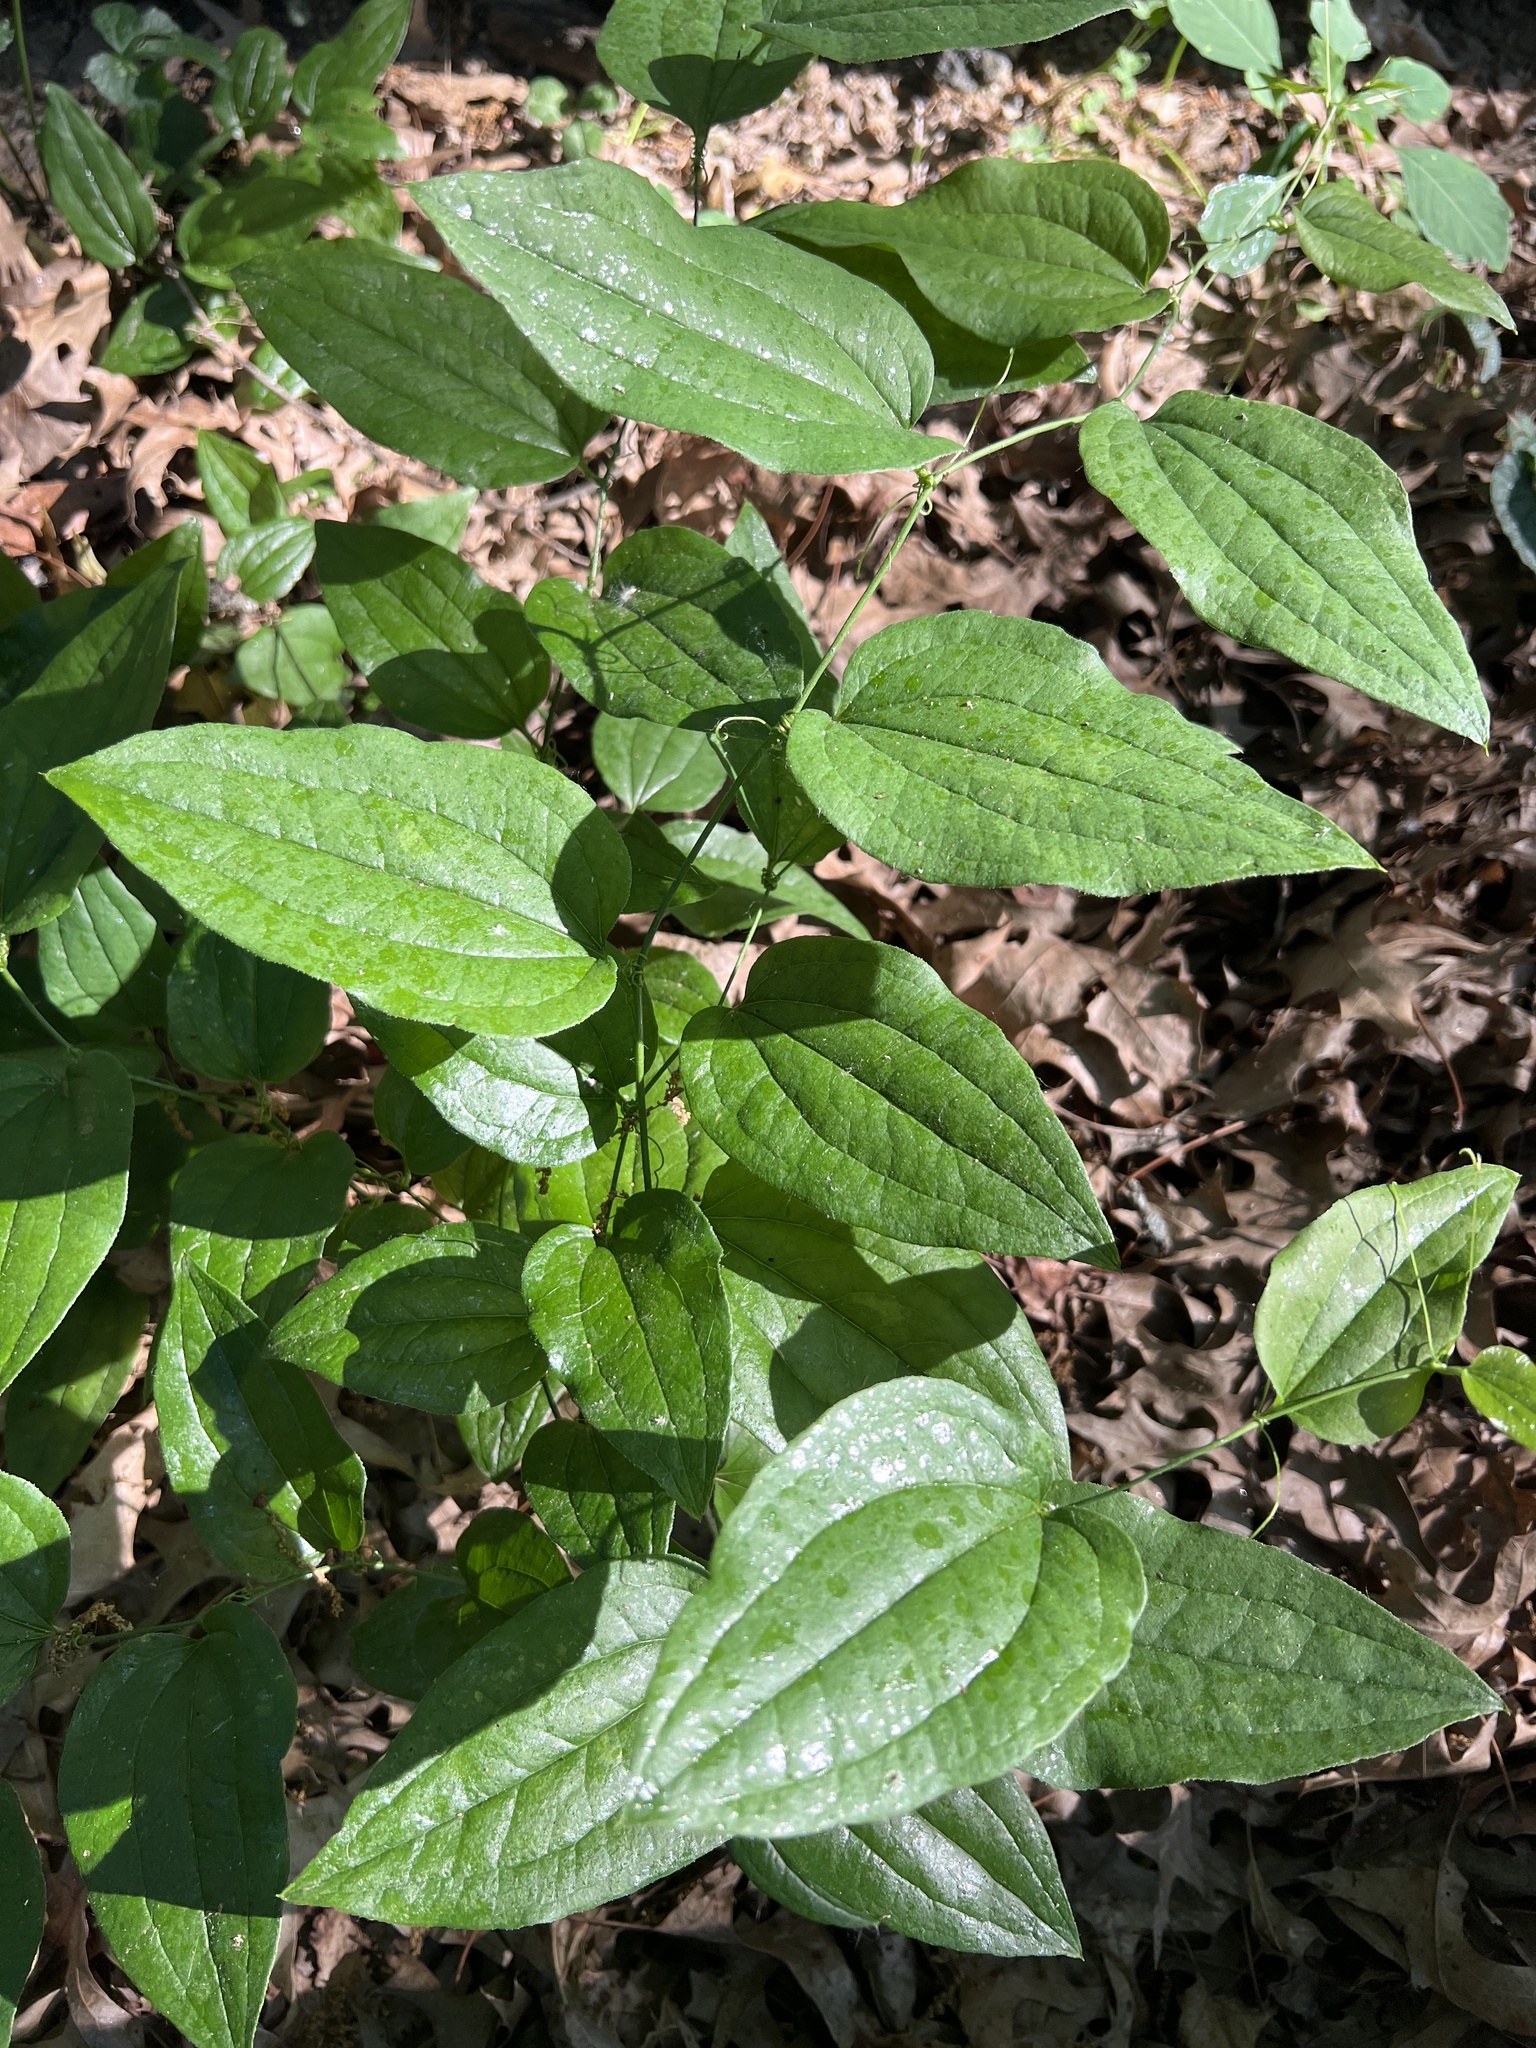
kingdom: Plantae
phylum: Tracheophyta
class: Liliopsida
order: Liliales
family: Smilacaceae
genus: Smilax
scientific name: Smilax tamnoides
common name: Hellfetter
